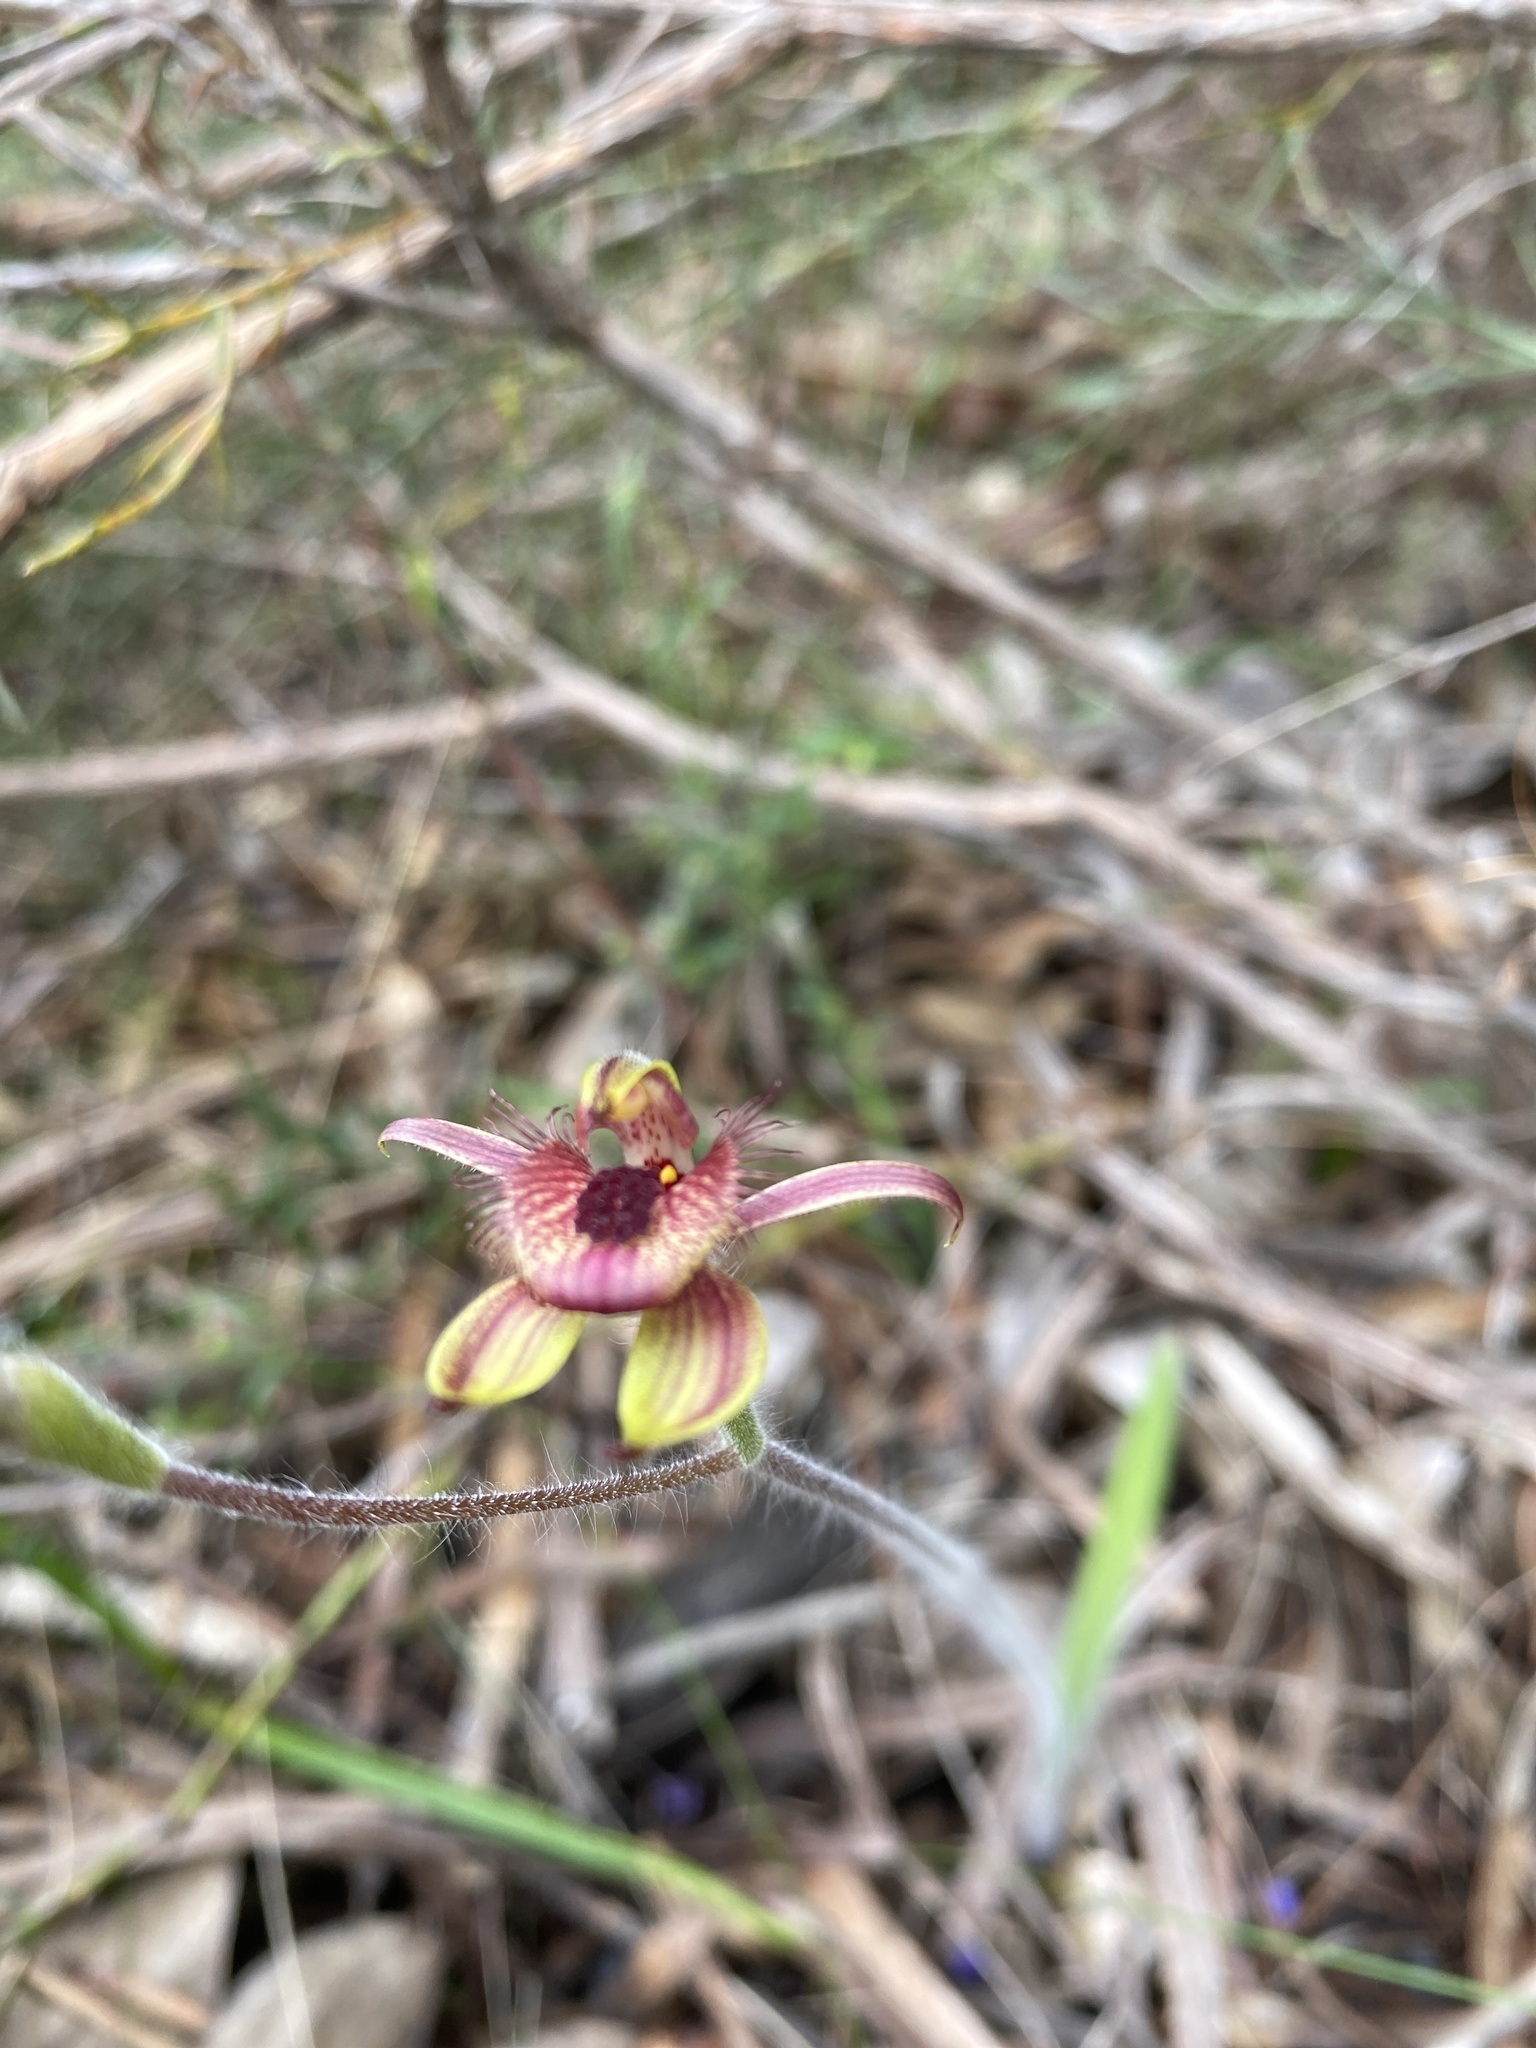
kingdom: Plantae
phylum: Tracheophyta
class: Liliopsida
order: Asparagales
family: Orchidaceae
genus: Caladenia
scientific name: Caladenia discoidea
